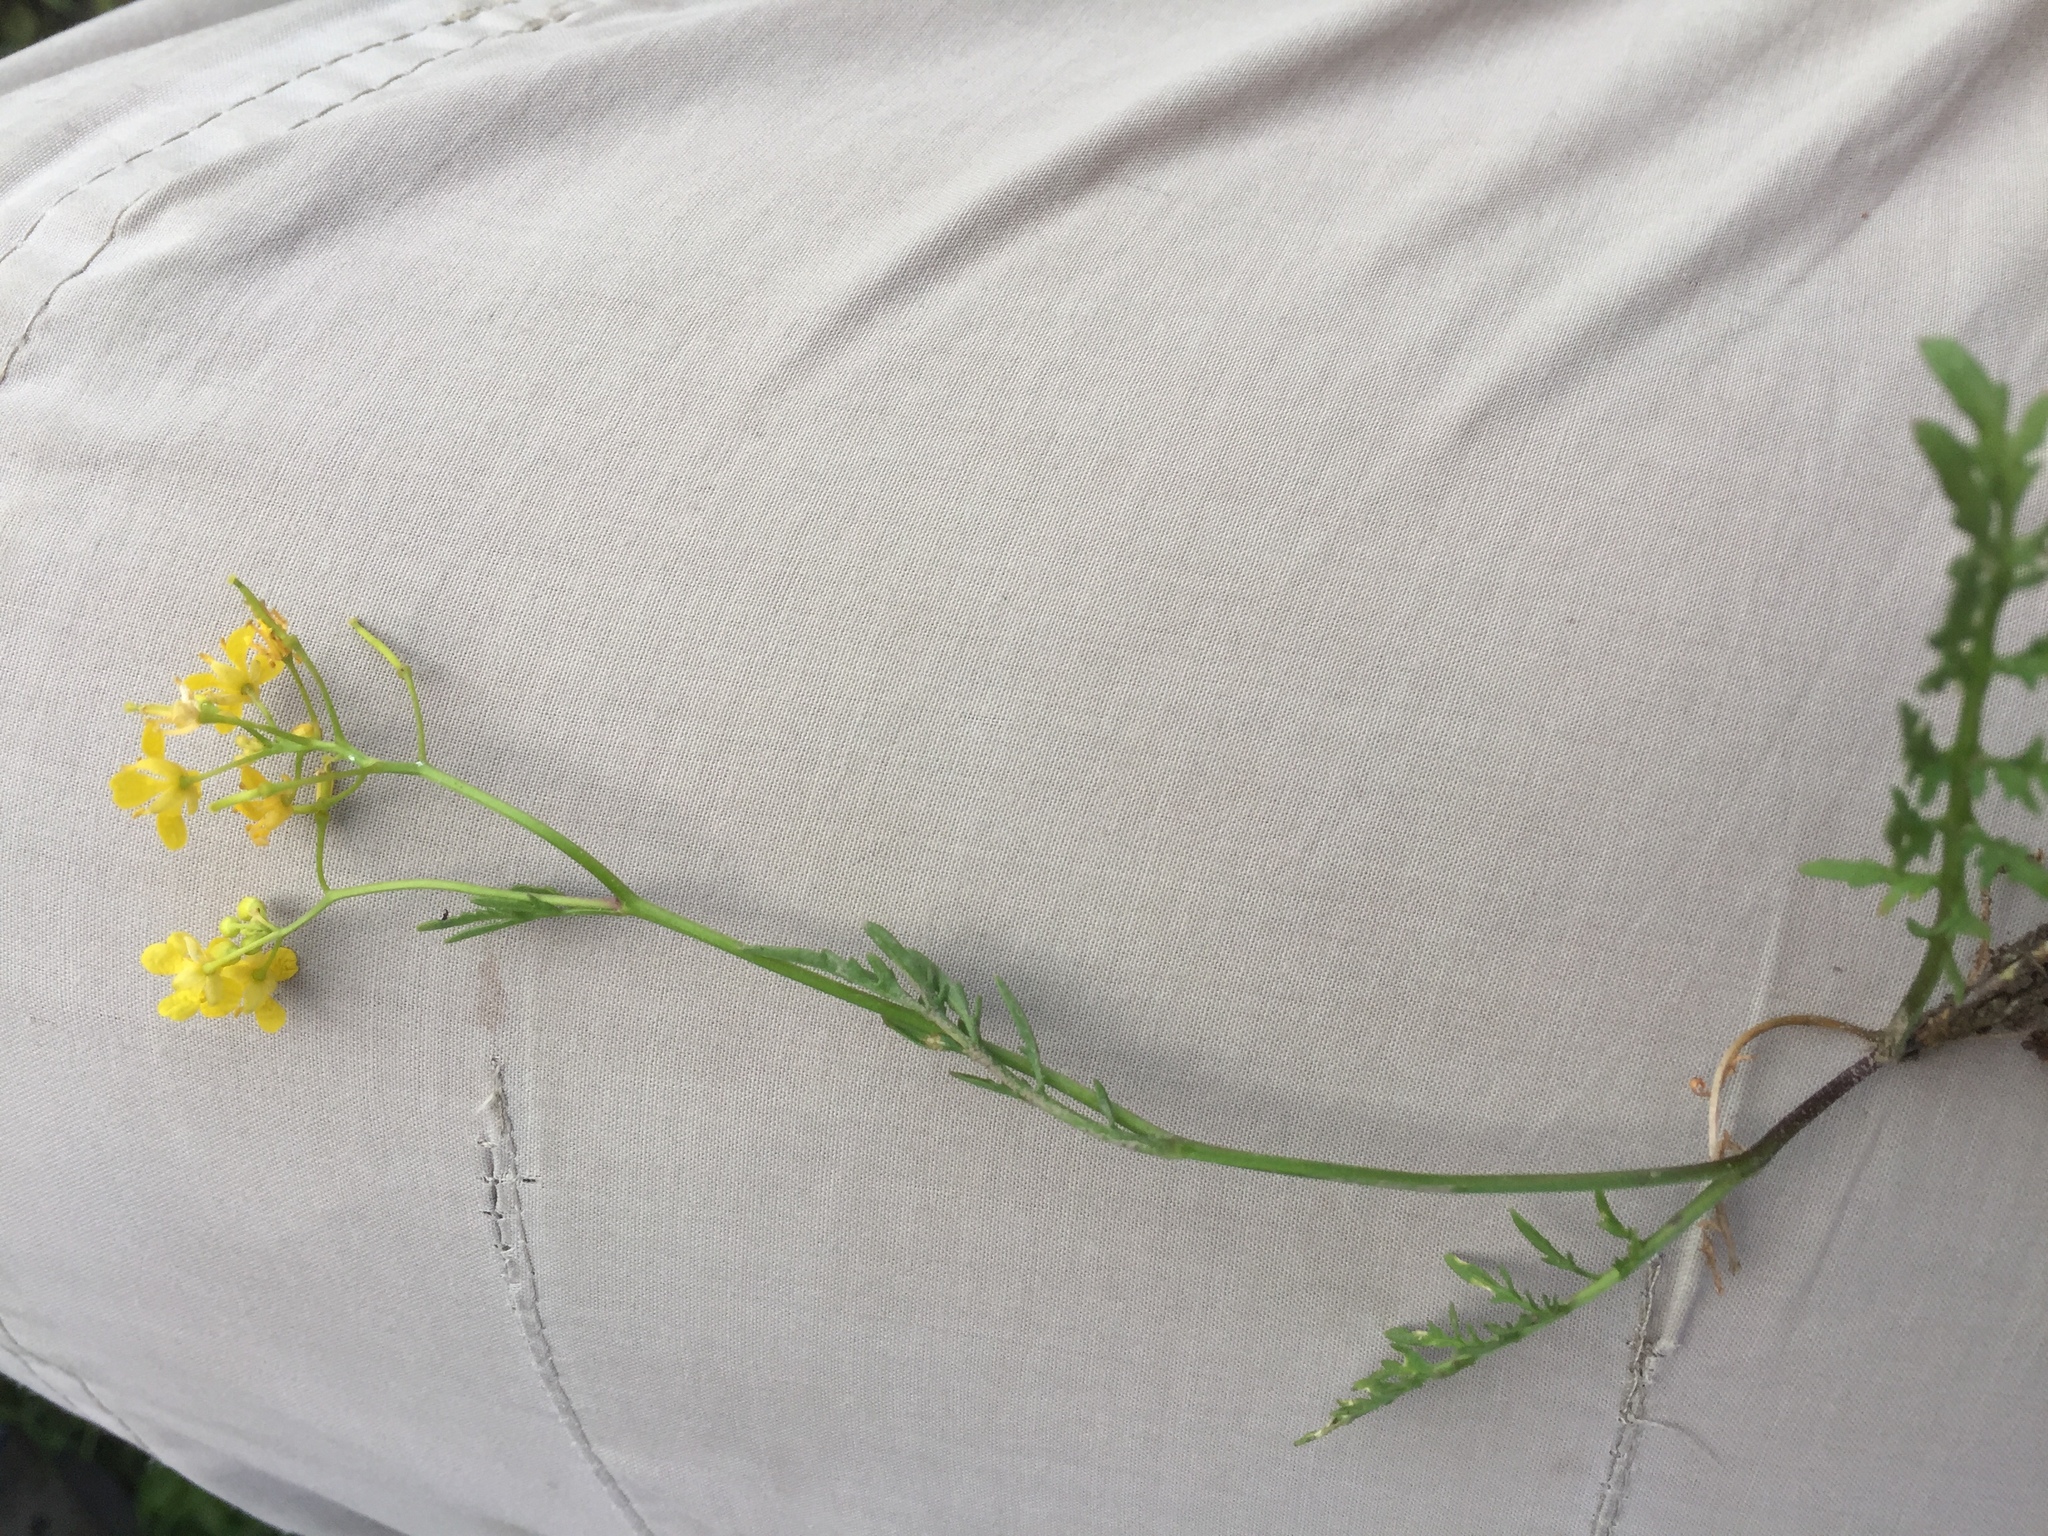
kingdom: Plantae
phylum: Tracheophyta
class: Magnoliopsida
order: Brassicales
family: Brassicaceae
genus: Rorippa
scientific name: Rorippa sylvestris
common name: Creeping yellowcress
